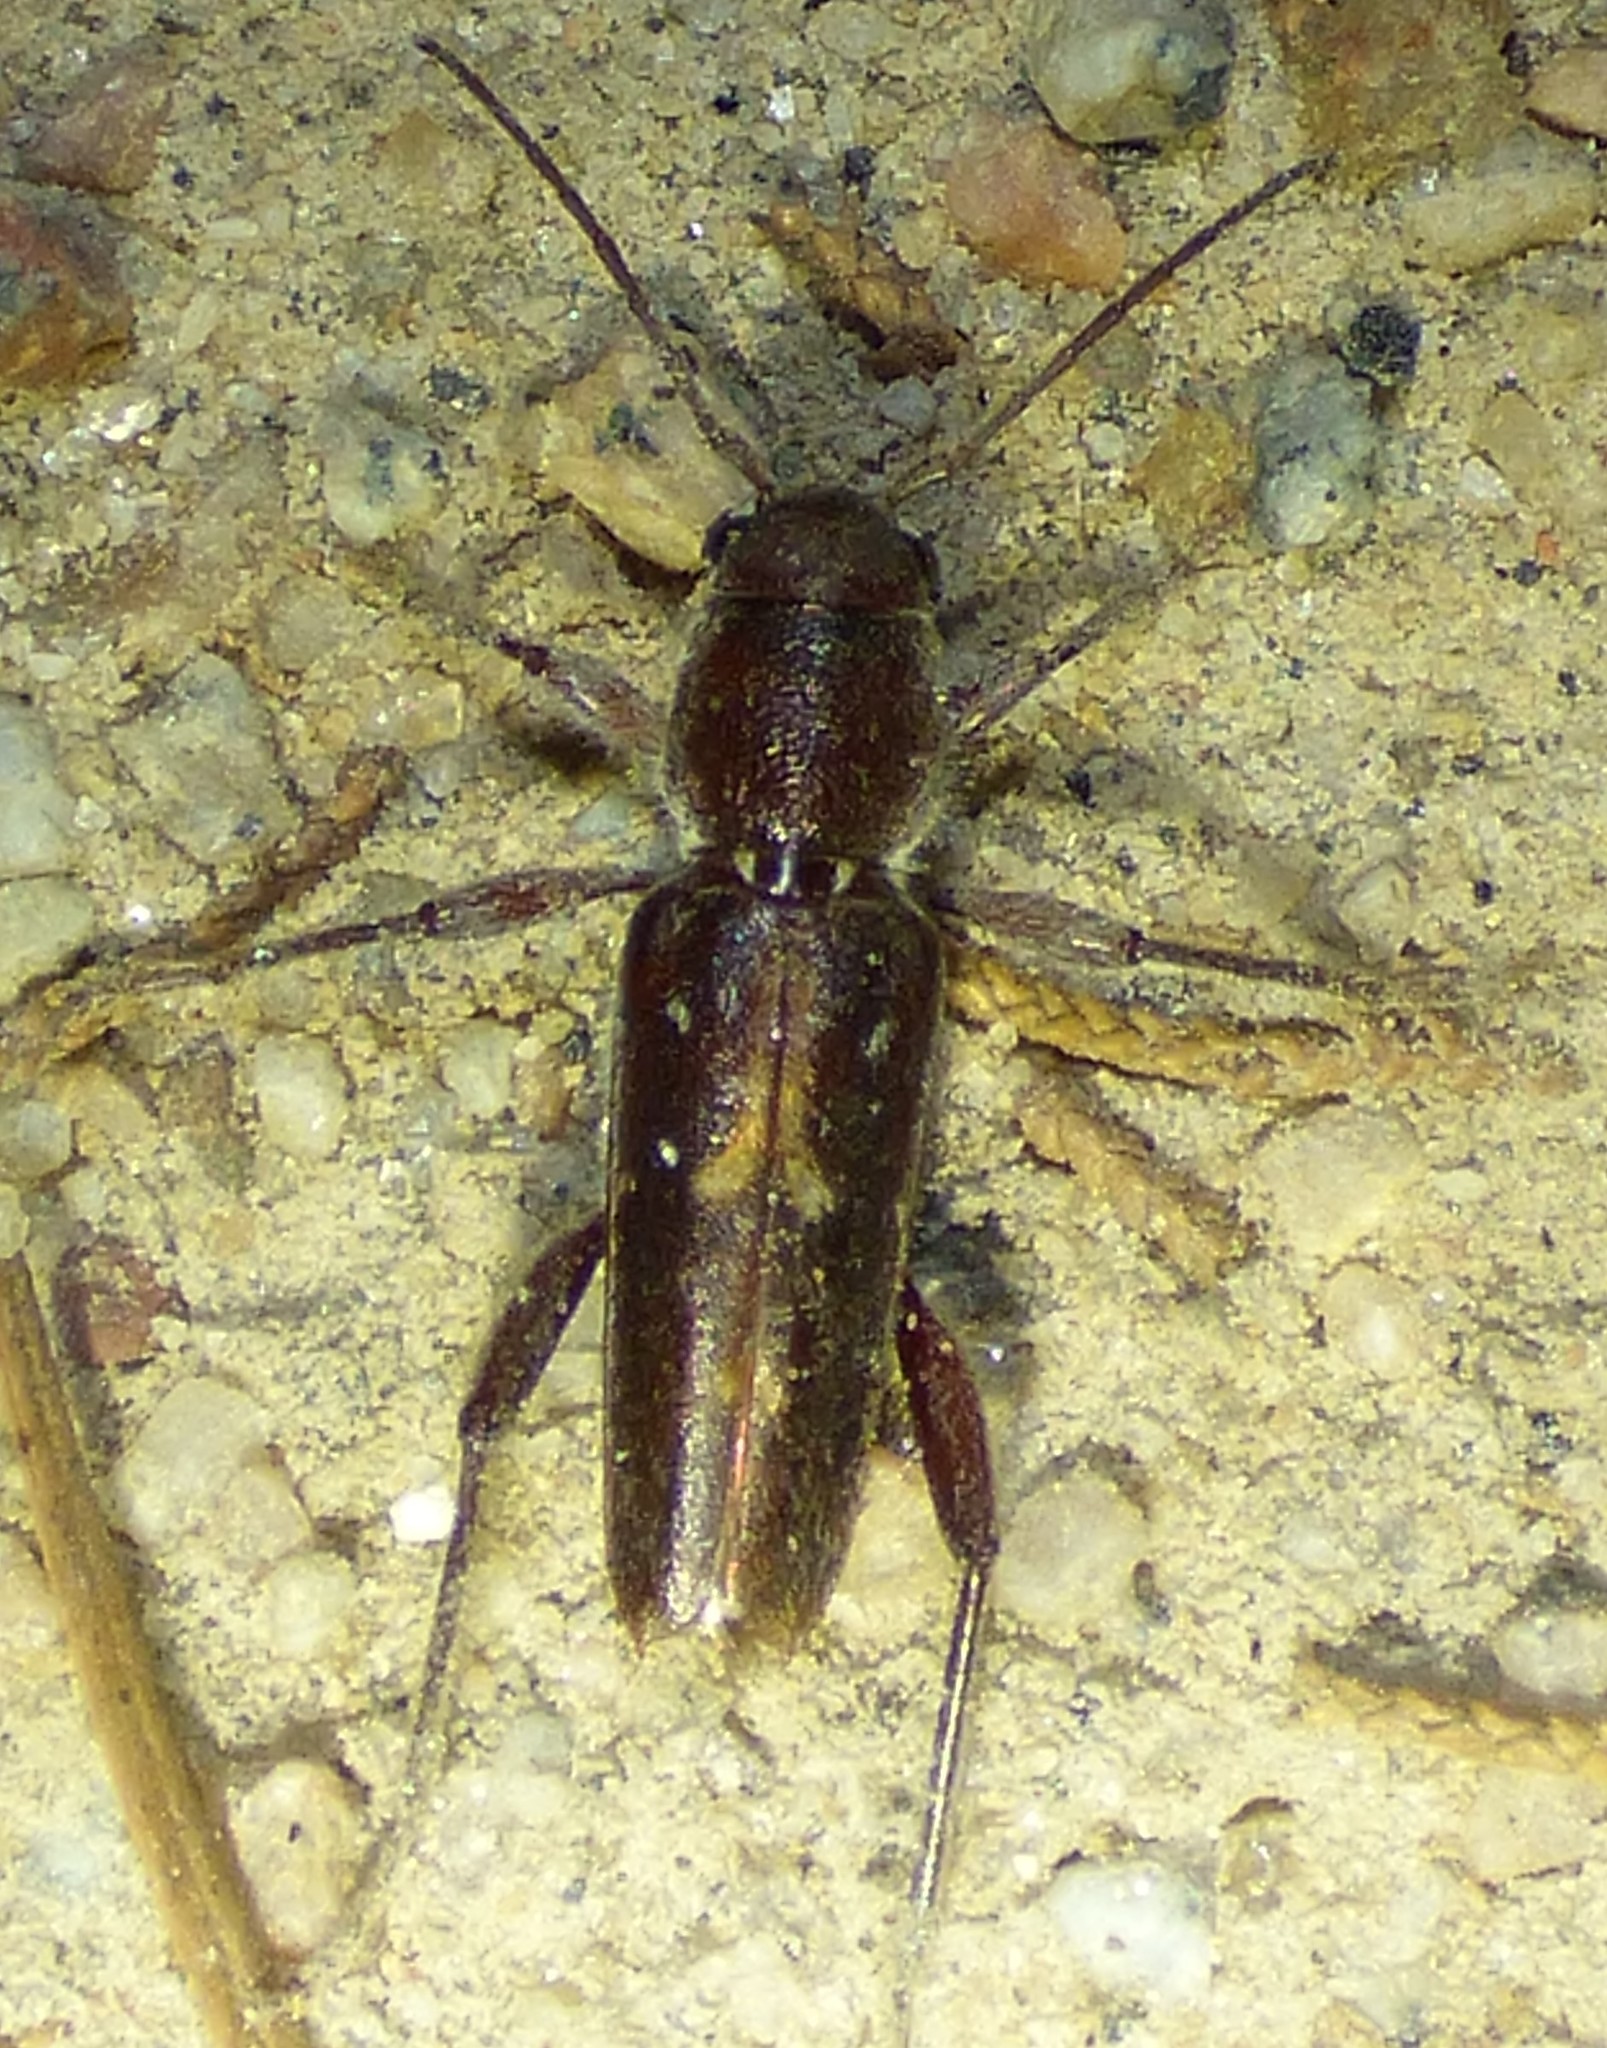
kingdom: Animalia
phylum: Arthropoda
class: Insecta
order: Coleoptera
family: Cerambycidae
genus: Xylotrechus
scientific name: Xylotrechus sagittatus
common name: Arrowhead borer
